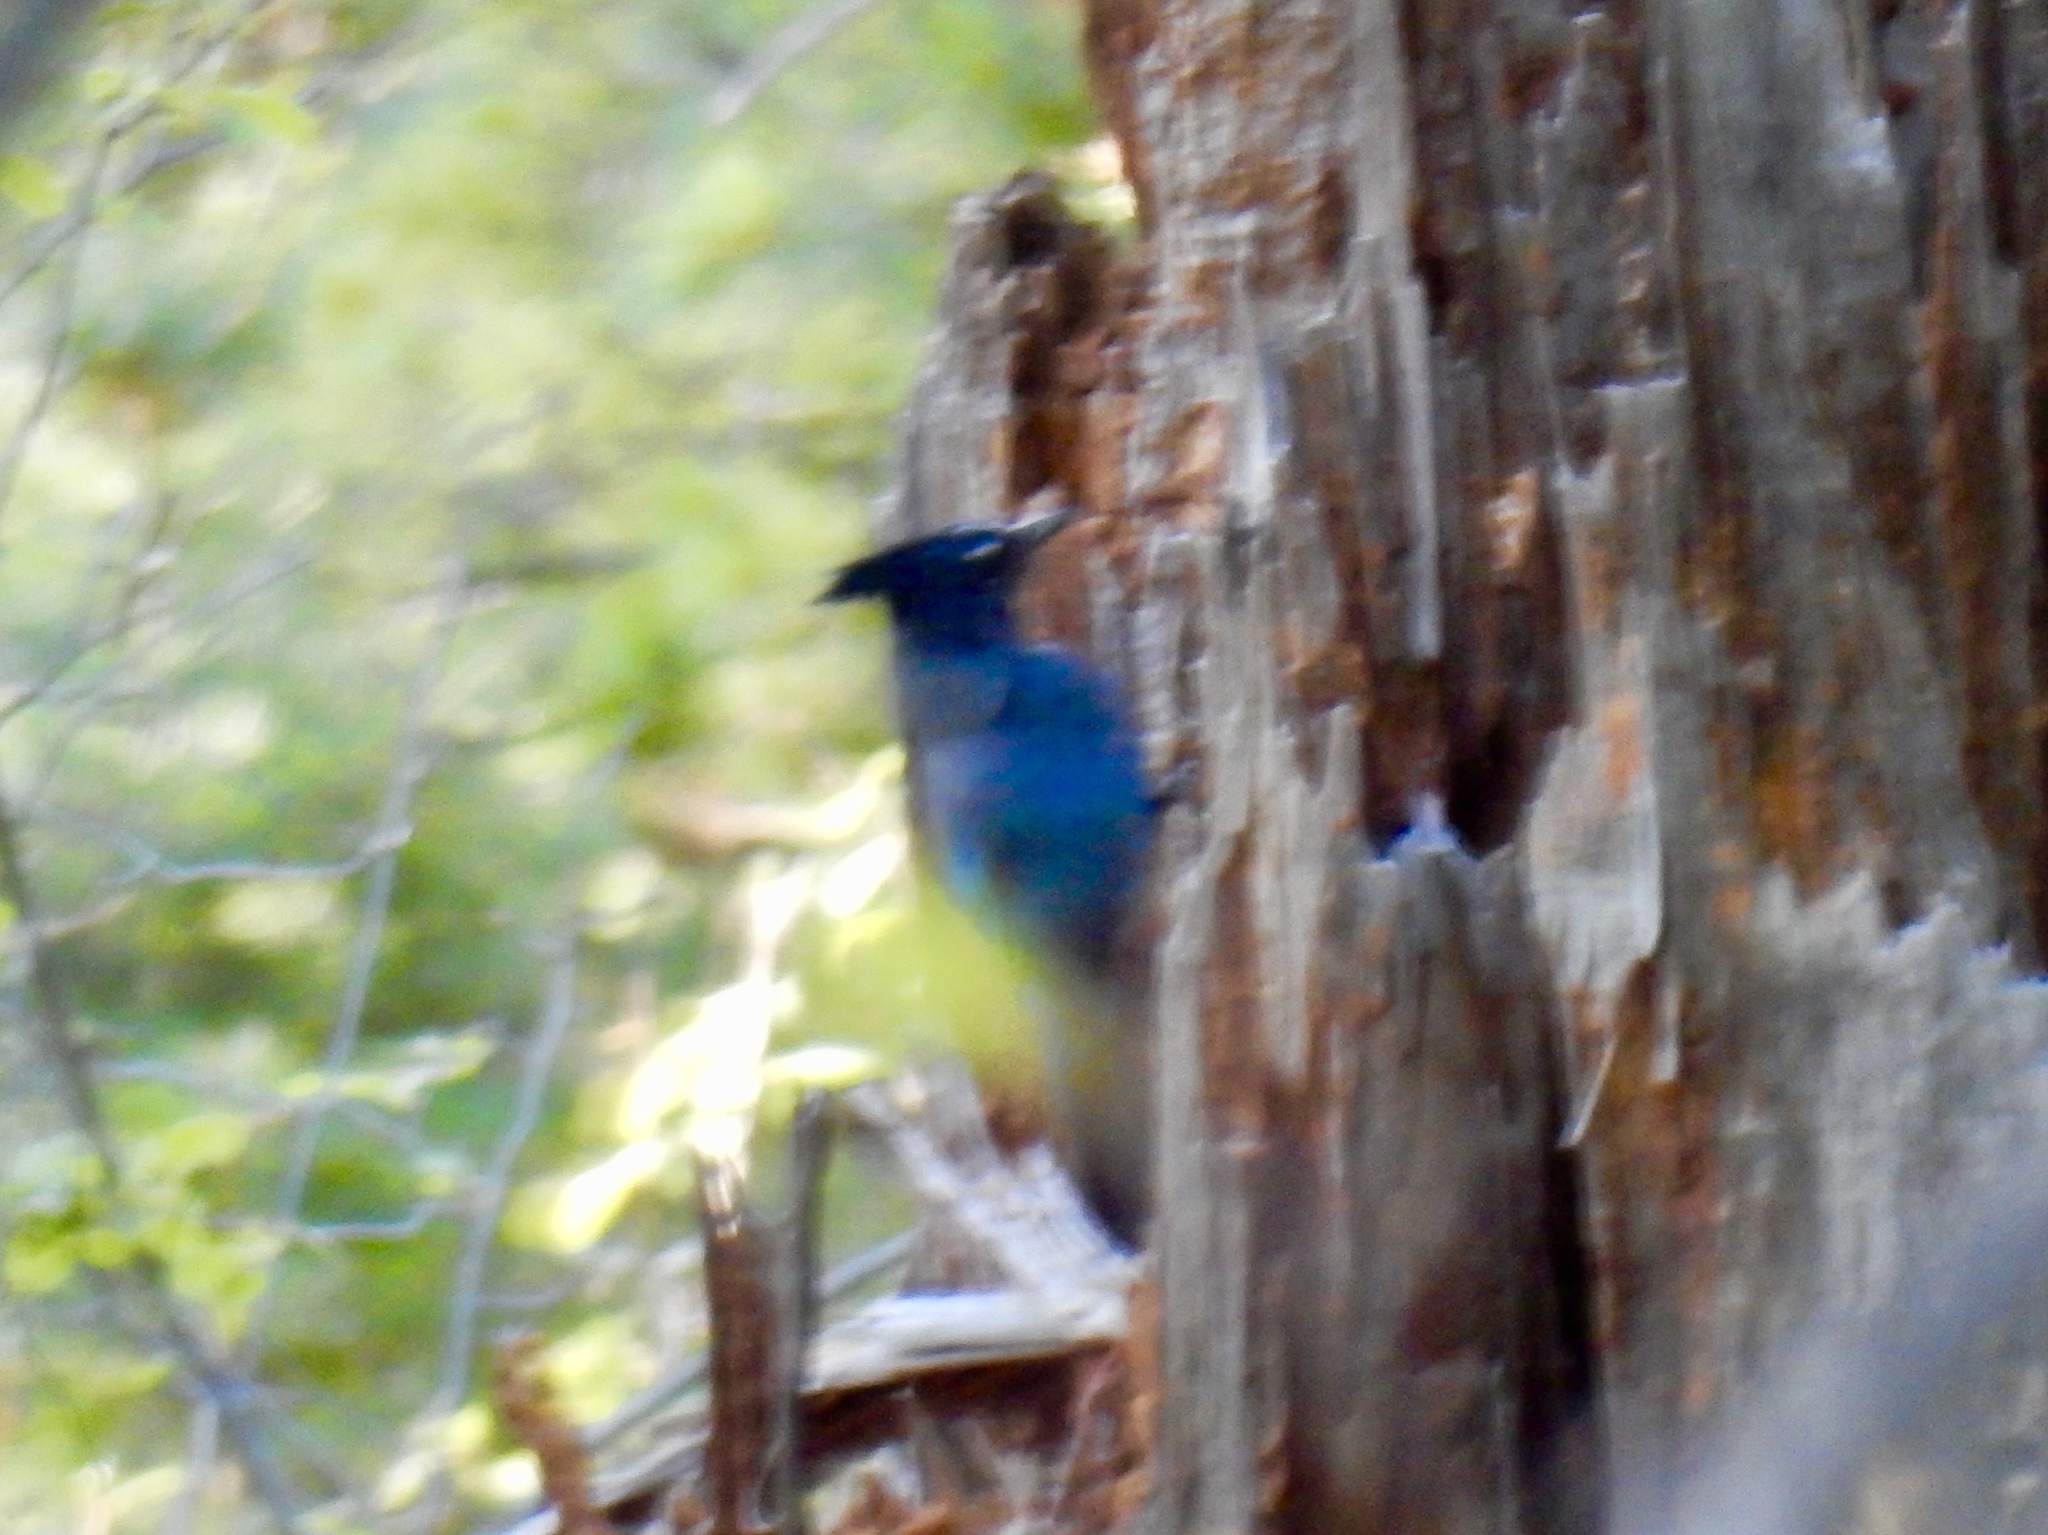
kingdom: Animalia
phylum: Chordata
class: Aves
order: Passeriformes
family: Corvidae
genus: Cyanocitta
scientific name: Cyanocitta stelleri
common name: Steller's jay
